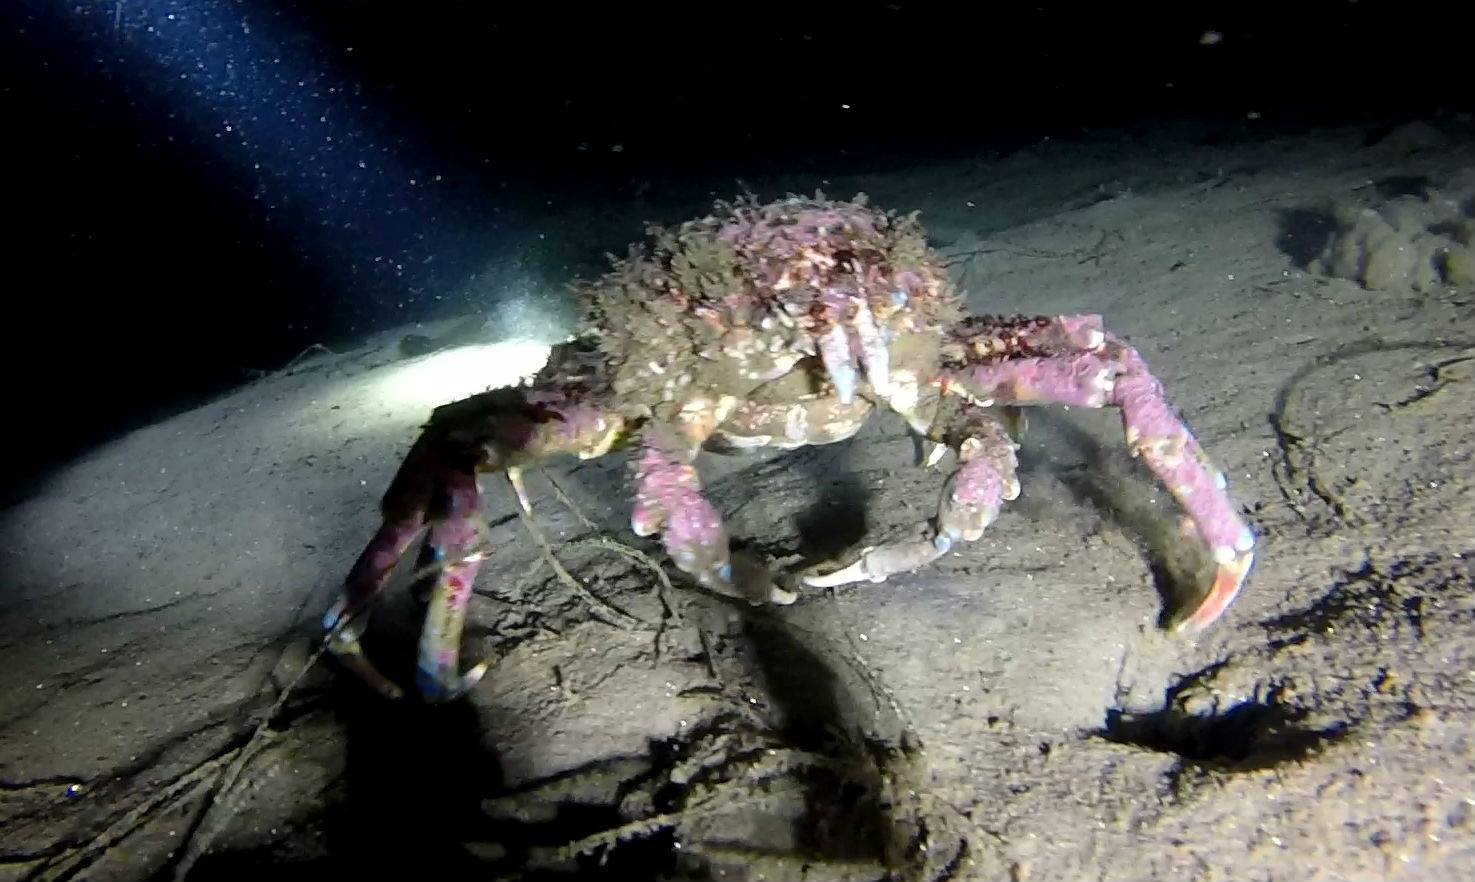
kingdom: Animalia
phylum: Arthropoda
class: Malacostraca
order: Decapoda
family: Epialtidae
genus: Loxorhynchus
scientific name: Loxorhynchus grandis
